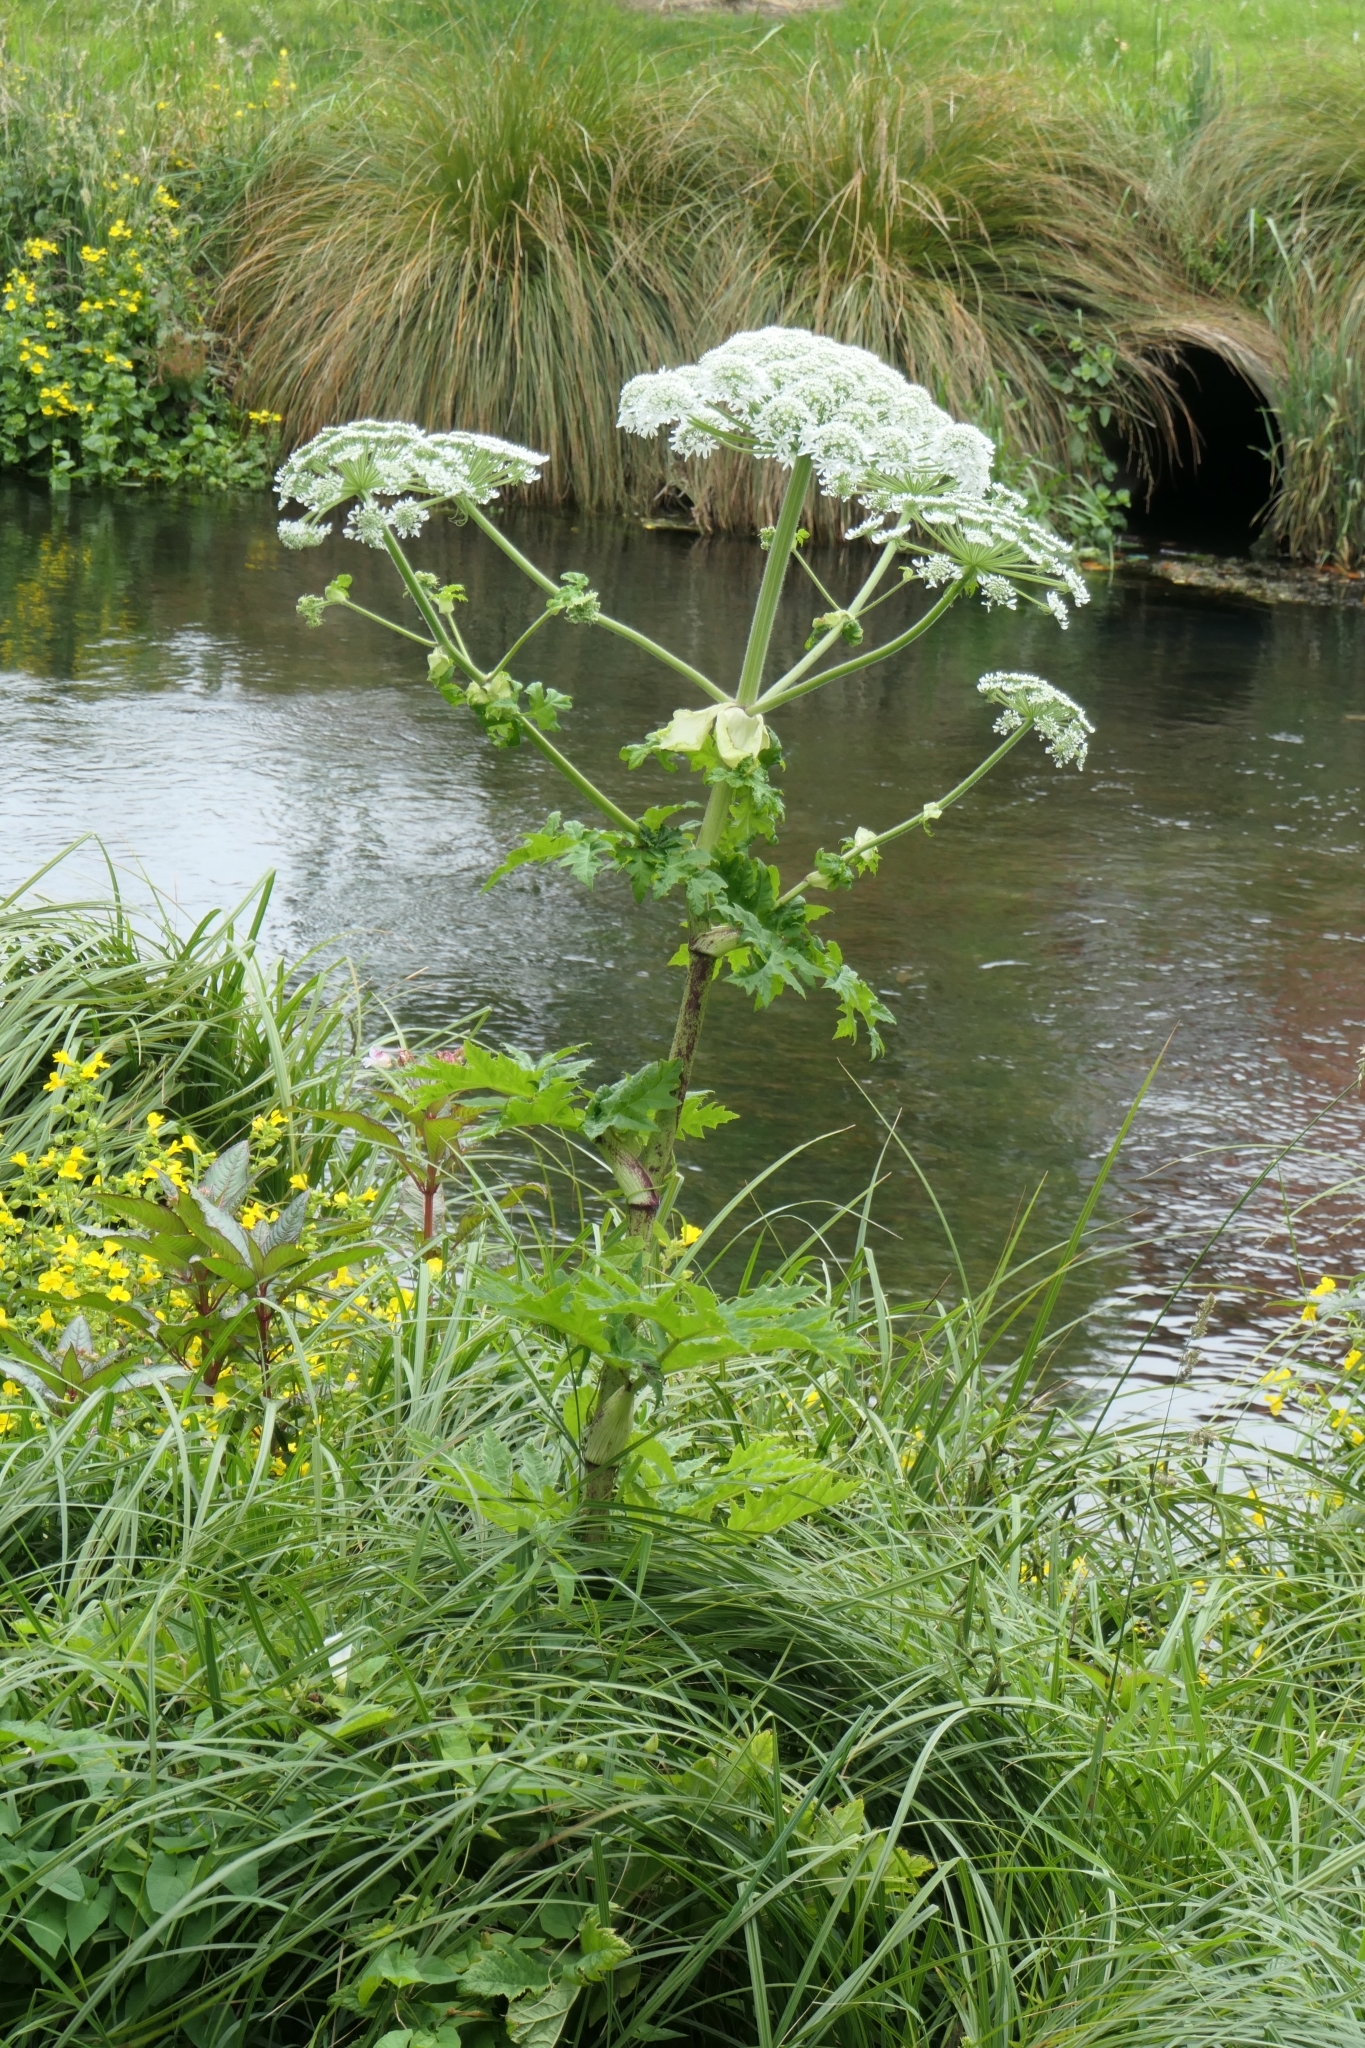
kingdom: Plantae
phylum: Tracheophyta
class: Magnoliopsida
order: Apiales
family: Apiaceae
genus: Heracleum
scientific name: Heracleum mantegazzianum
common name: Giant hogweed
